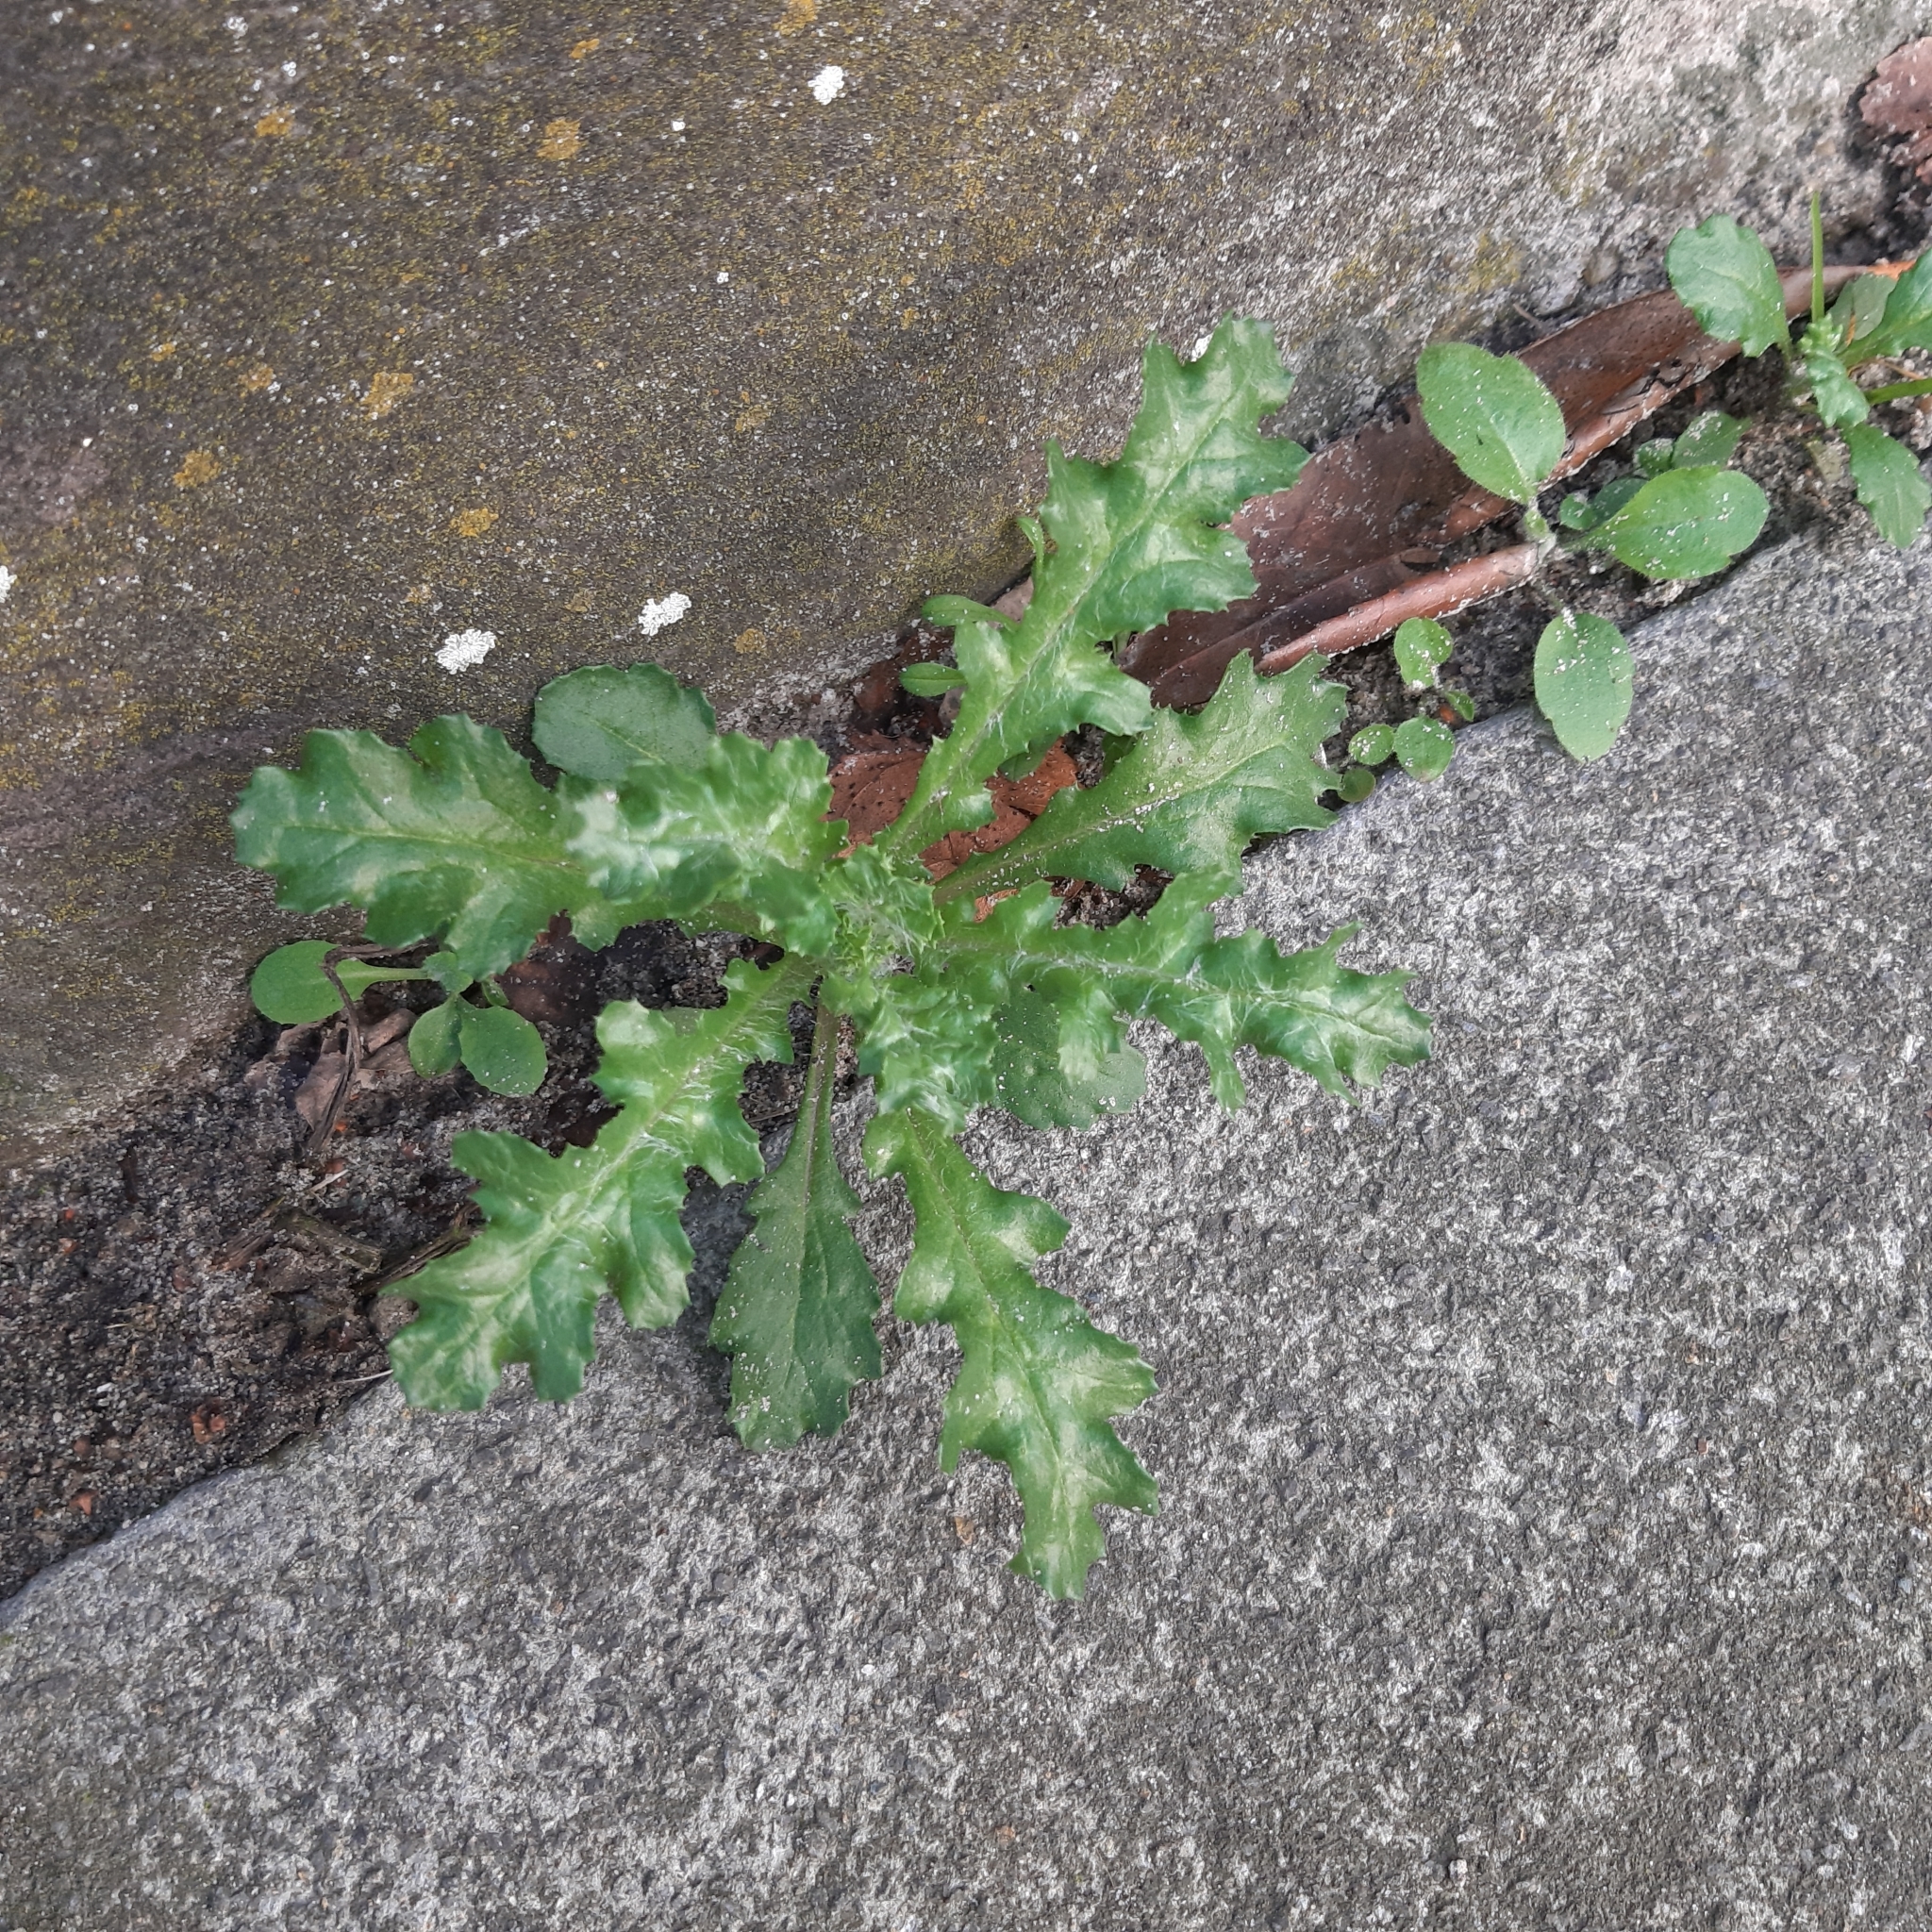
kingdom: Plantae
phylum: Tracheophyta
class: Magnoliopsida
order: Asterales
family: Asteraceae
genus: Senecio
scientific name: Senecio vulgaris
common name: Old-man-in-the-spring
